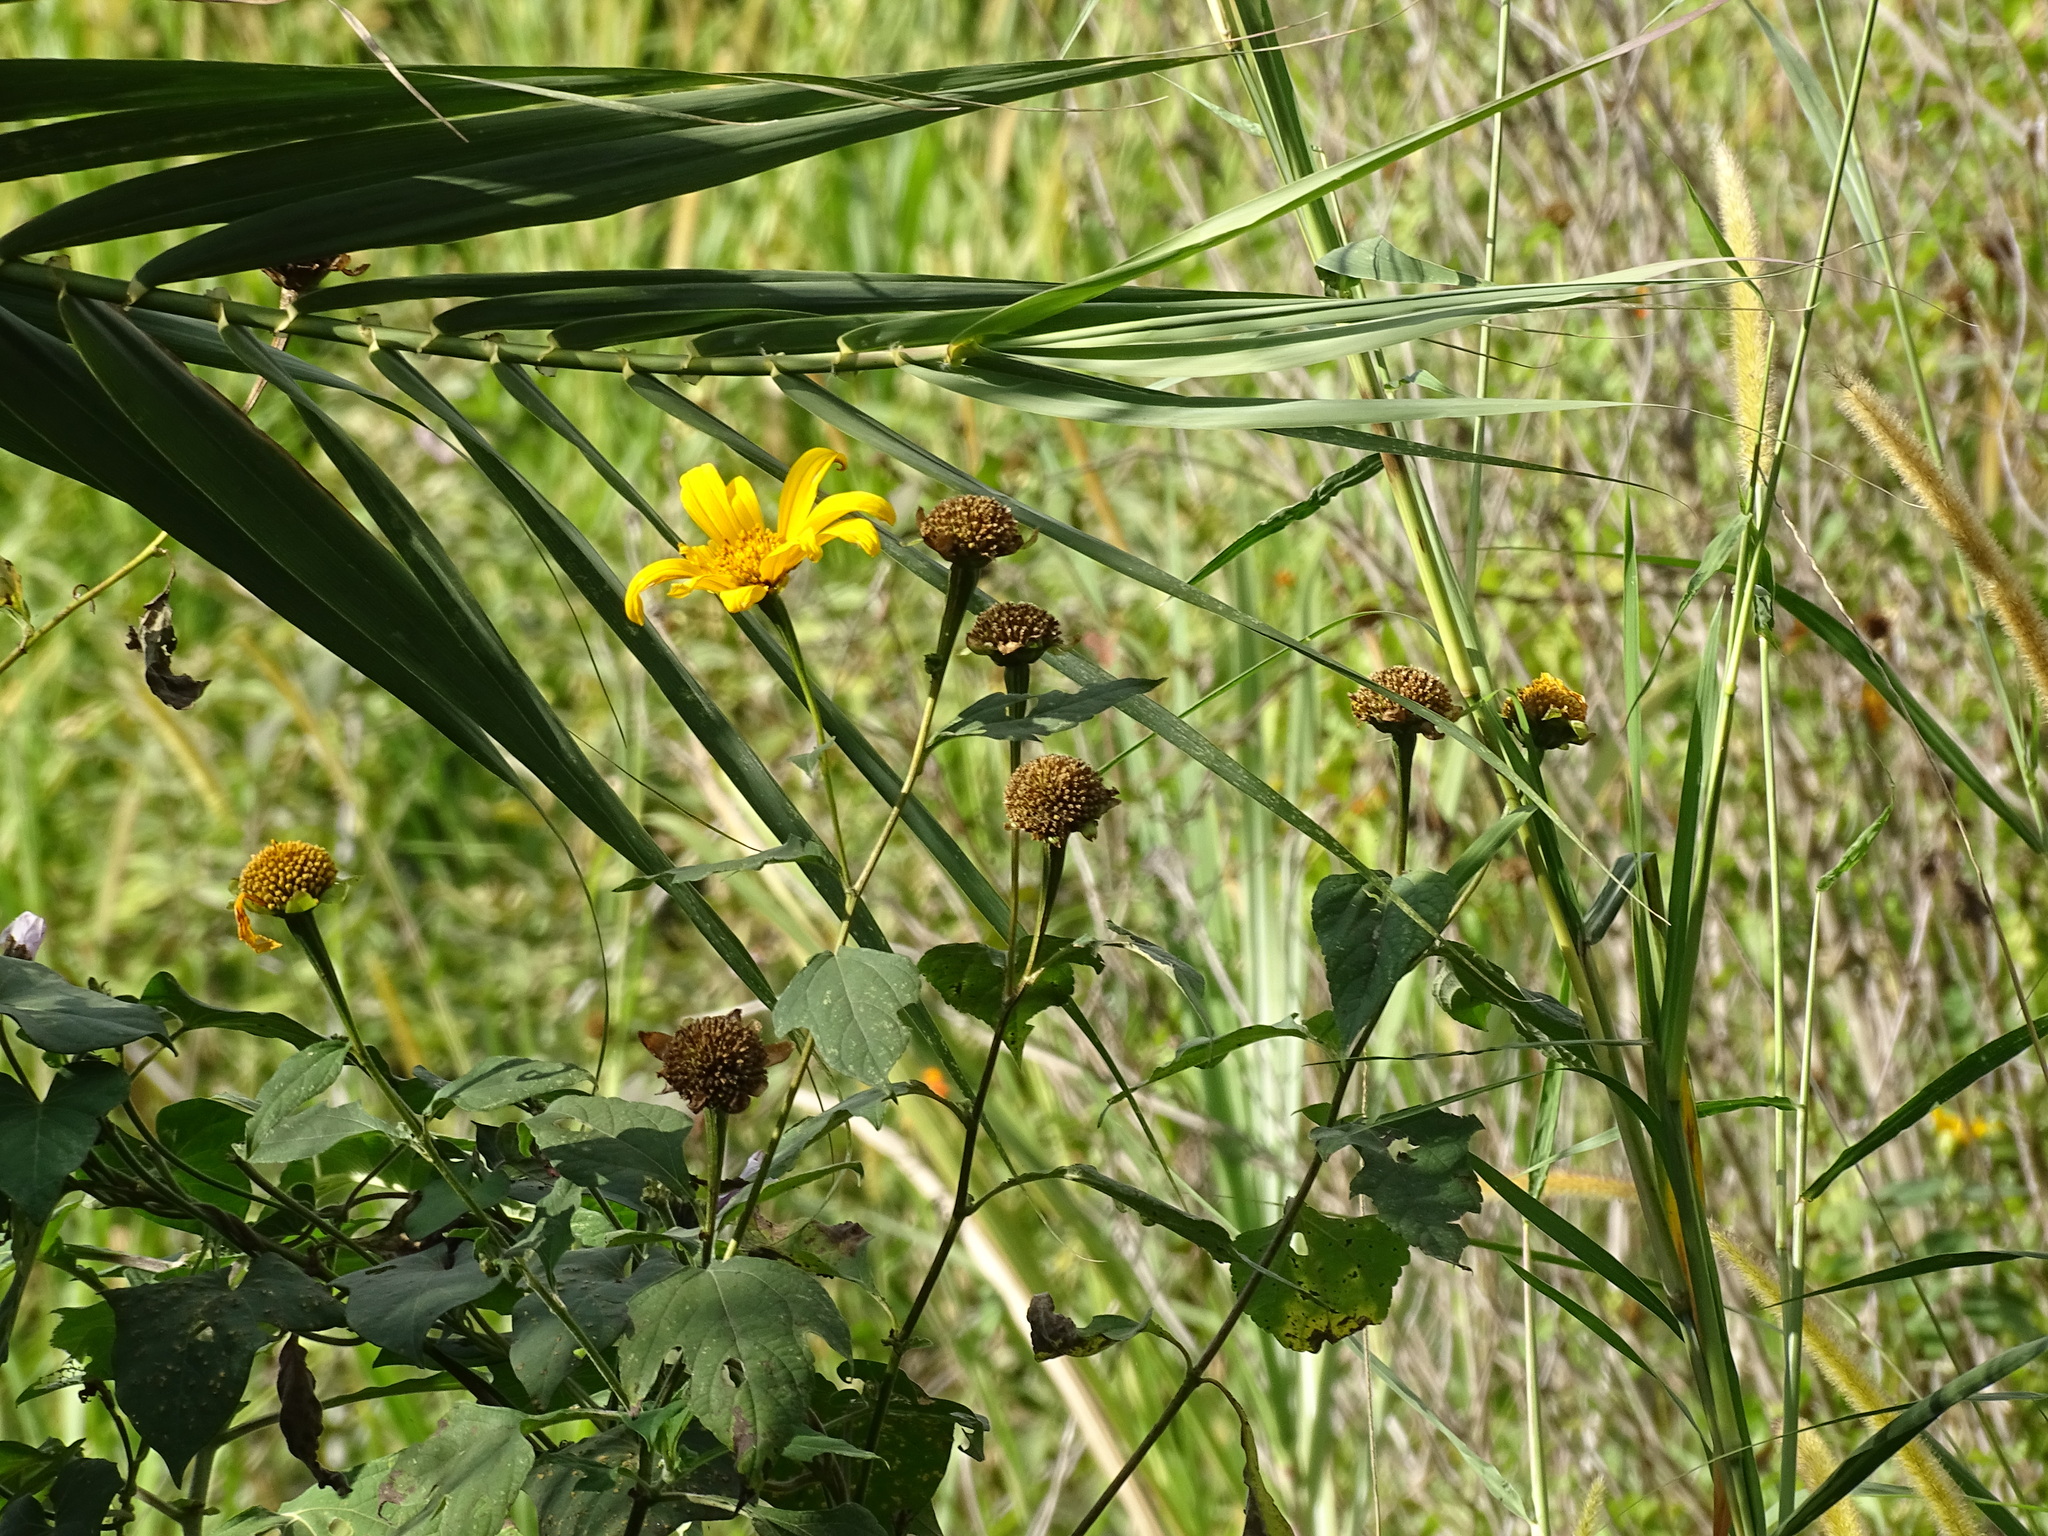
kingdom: Plantae
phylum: Tracheophyta
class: Magnoliopsida
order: Asterales
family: Asteraceae
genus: Tithonia
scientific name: Tithonia diversifolia
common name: Tree marigold
